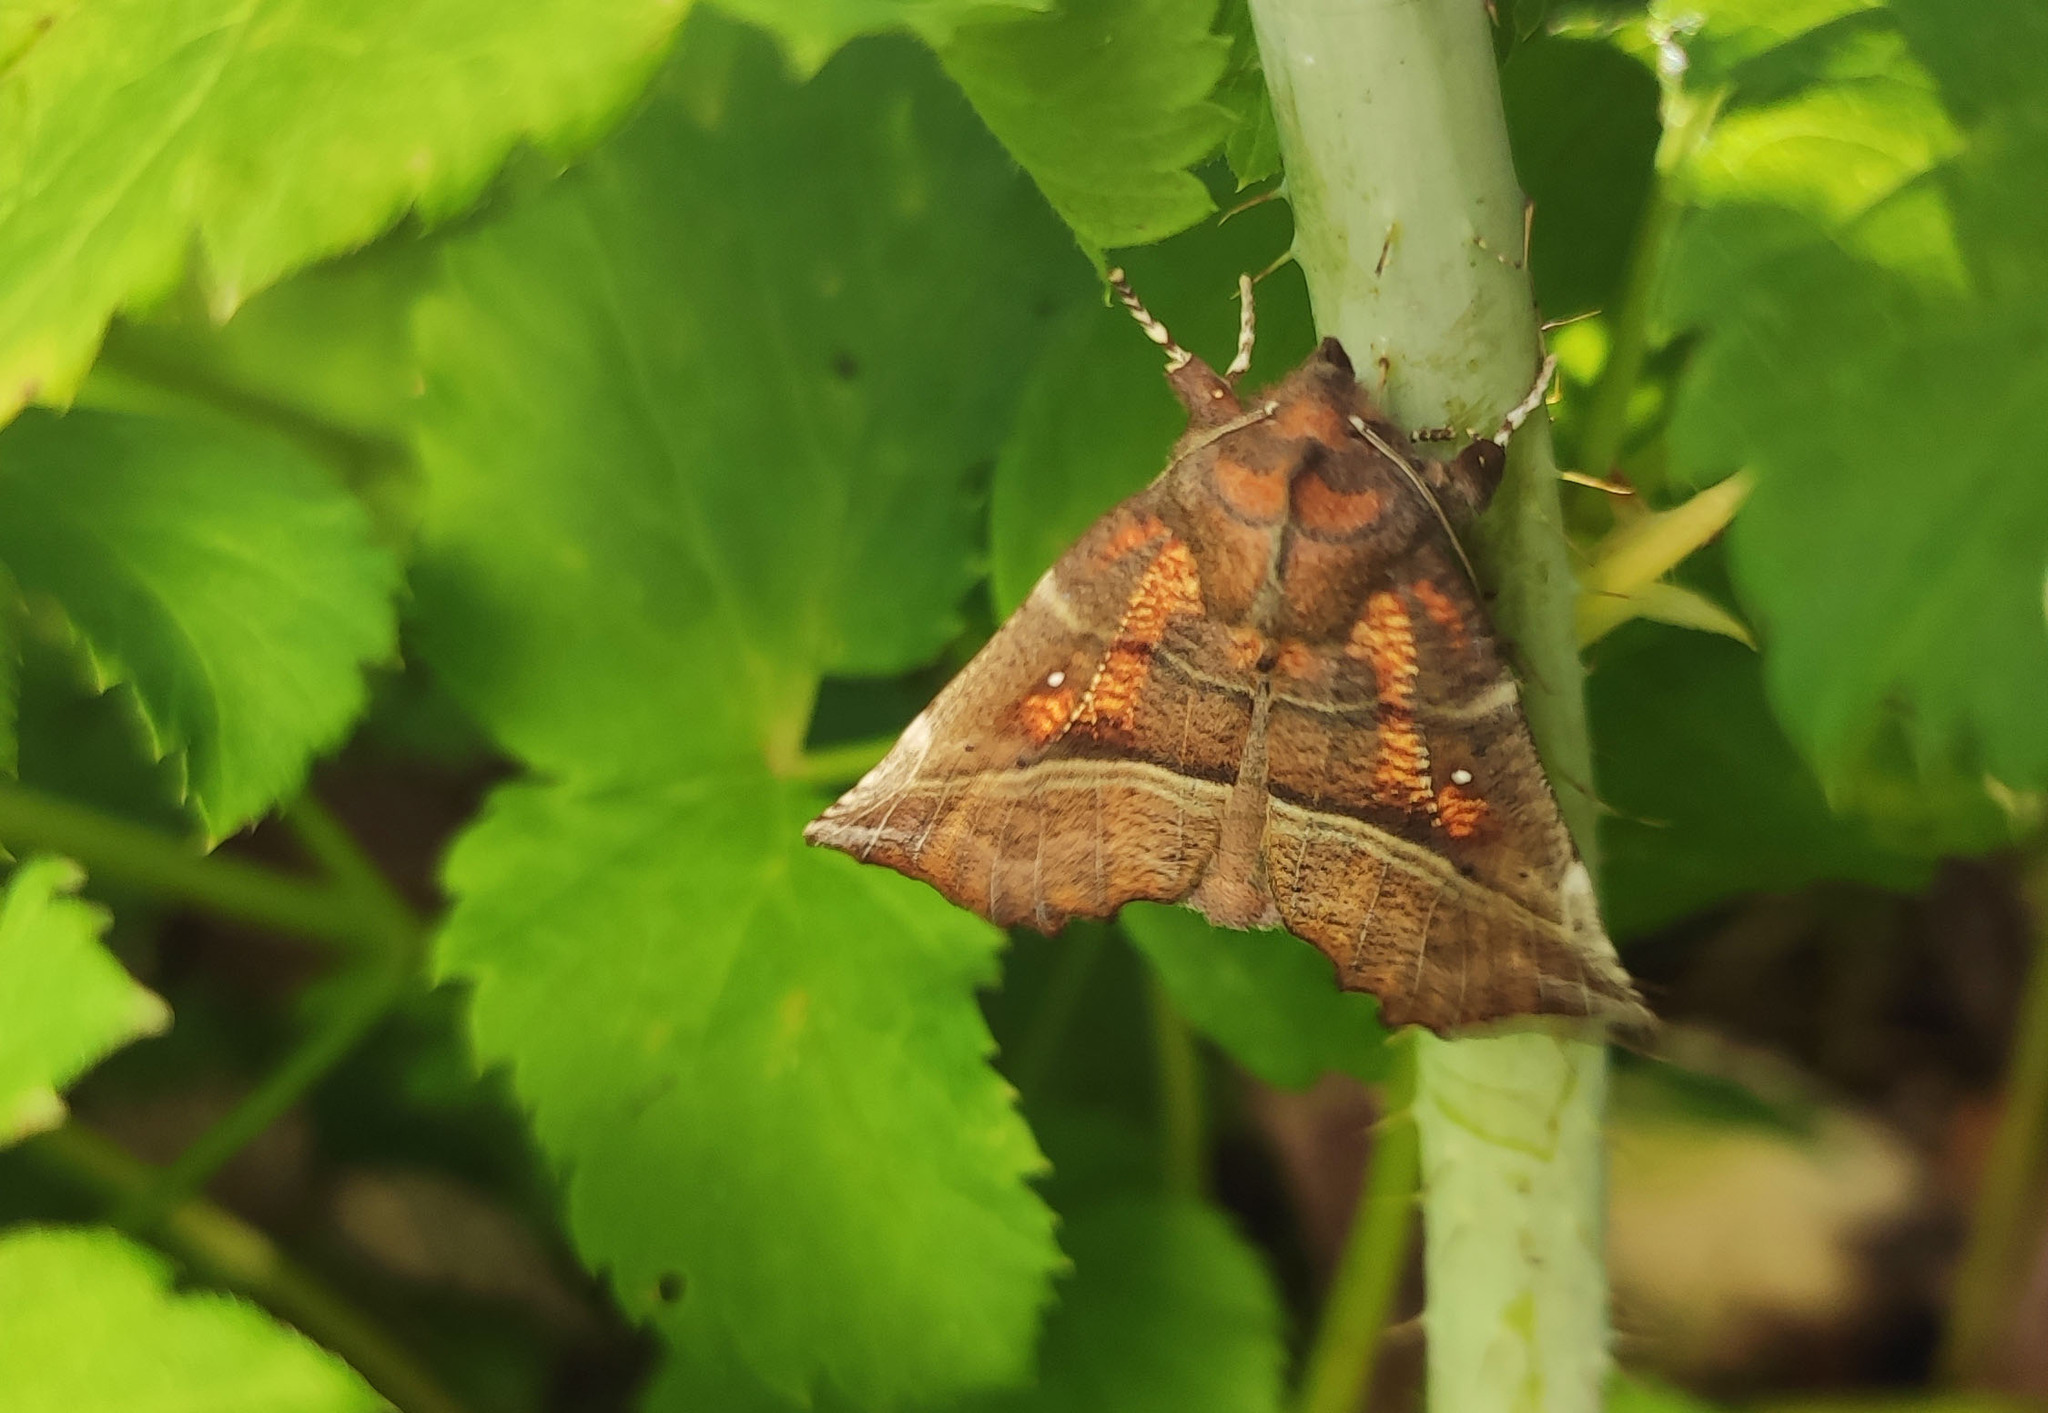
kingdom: Animalia
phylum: Arthropoda
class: Insecta
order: Lepidoptera
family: Erebidae
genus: Scoliopteryx
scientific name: Scoliopteryx libatrix
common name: Herald
